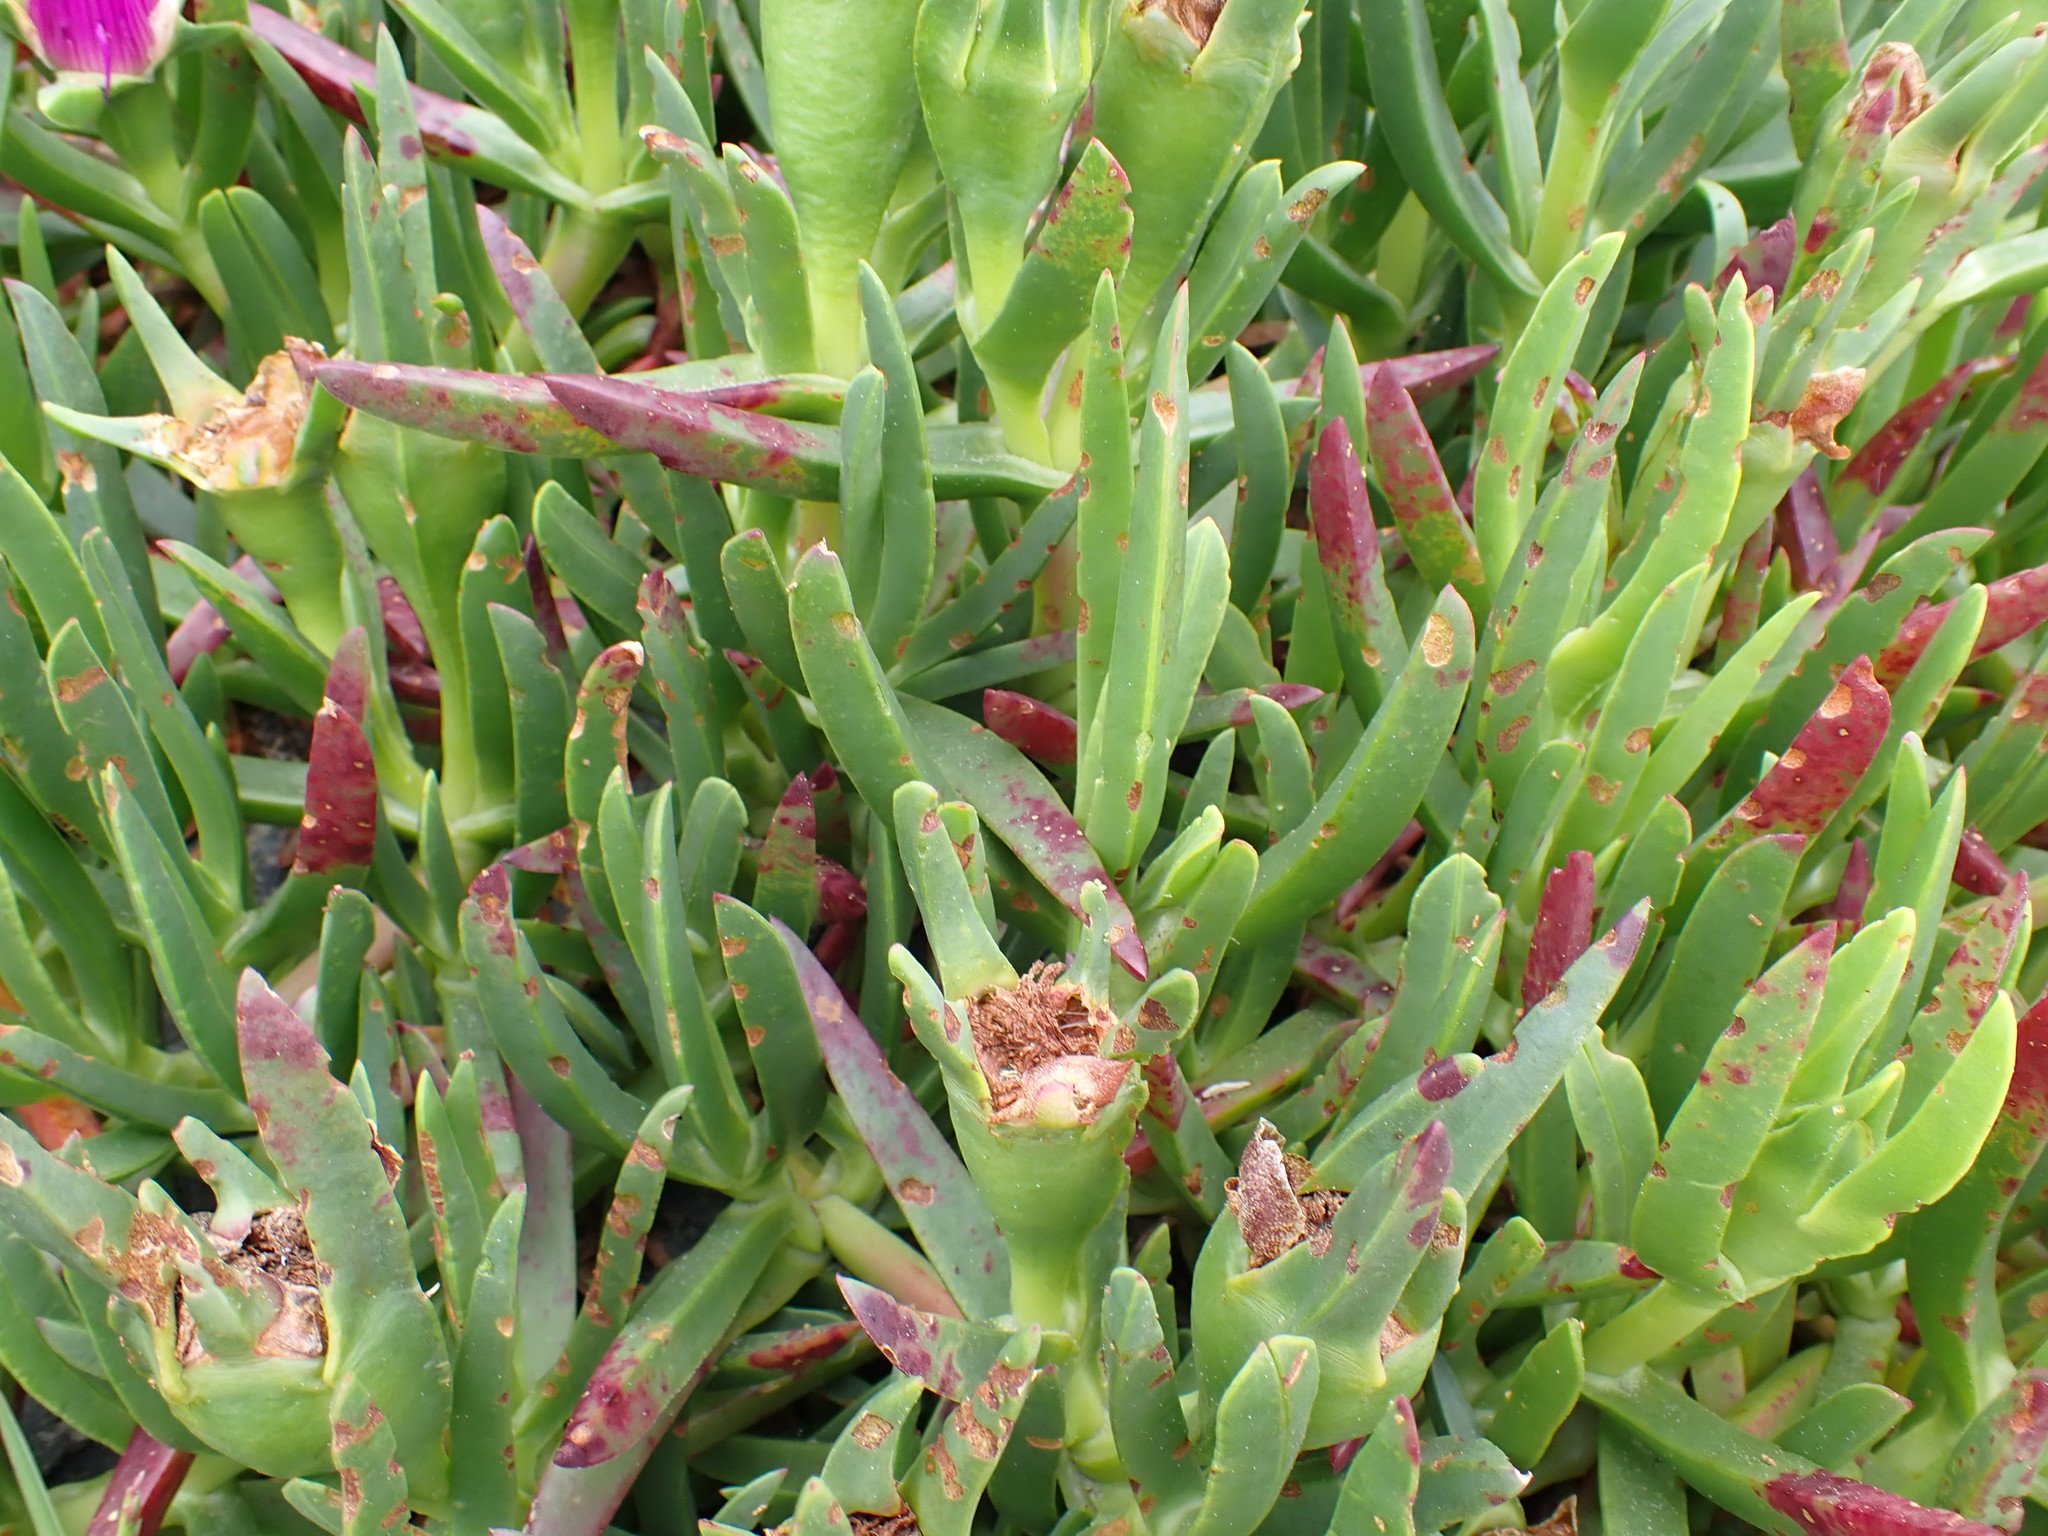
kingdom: Plantae
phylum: Tracheophyta
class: Magnoliopsida
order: Caryophyllales
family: Aizoaceae
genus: Carpobrotus
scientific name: Carpobrotus chilensis
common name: Sea fig
